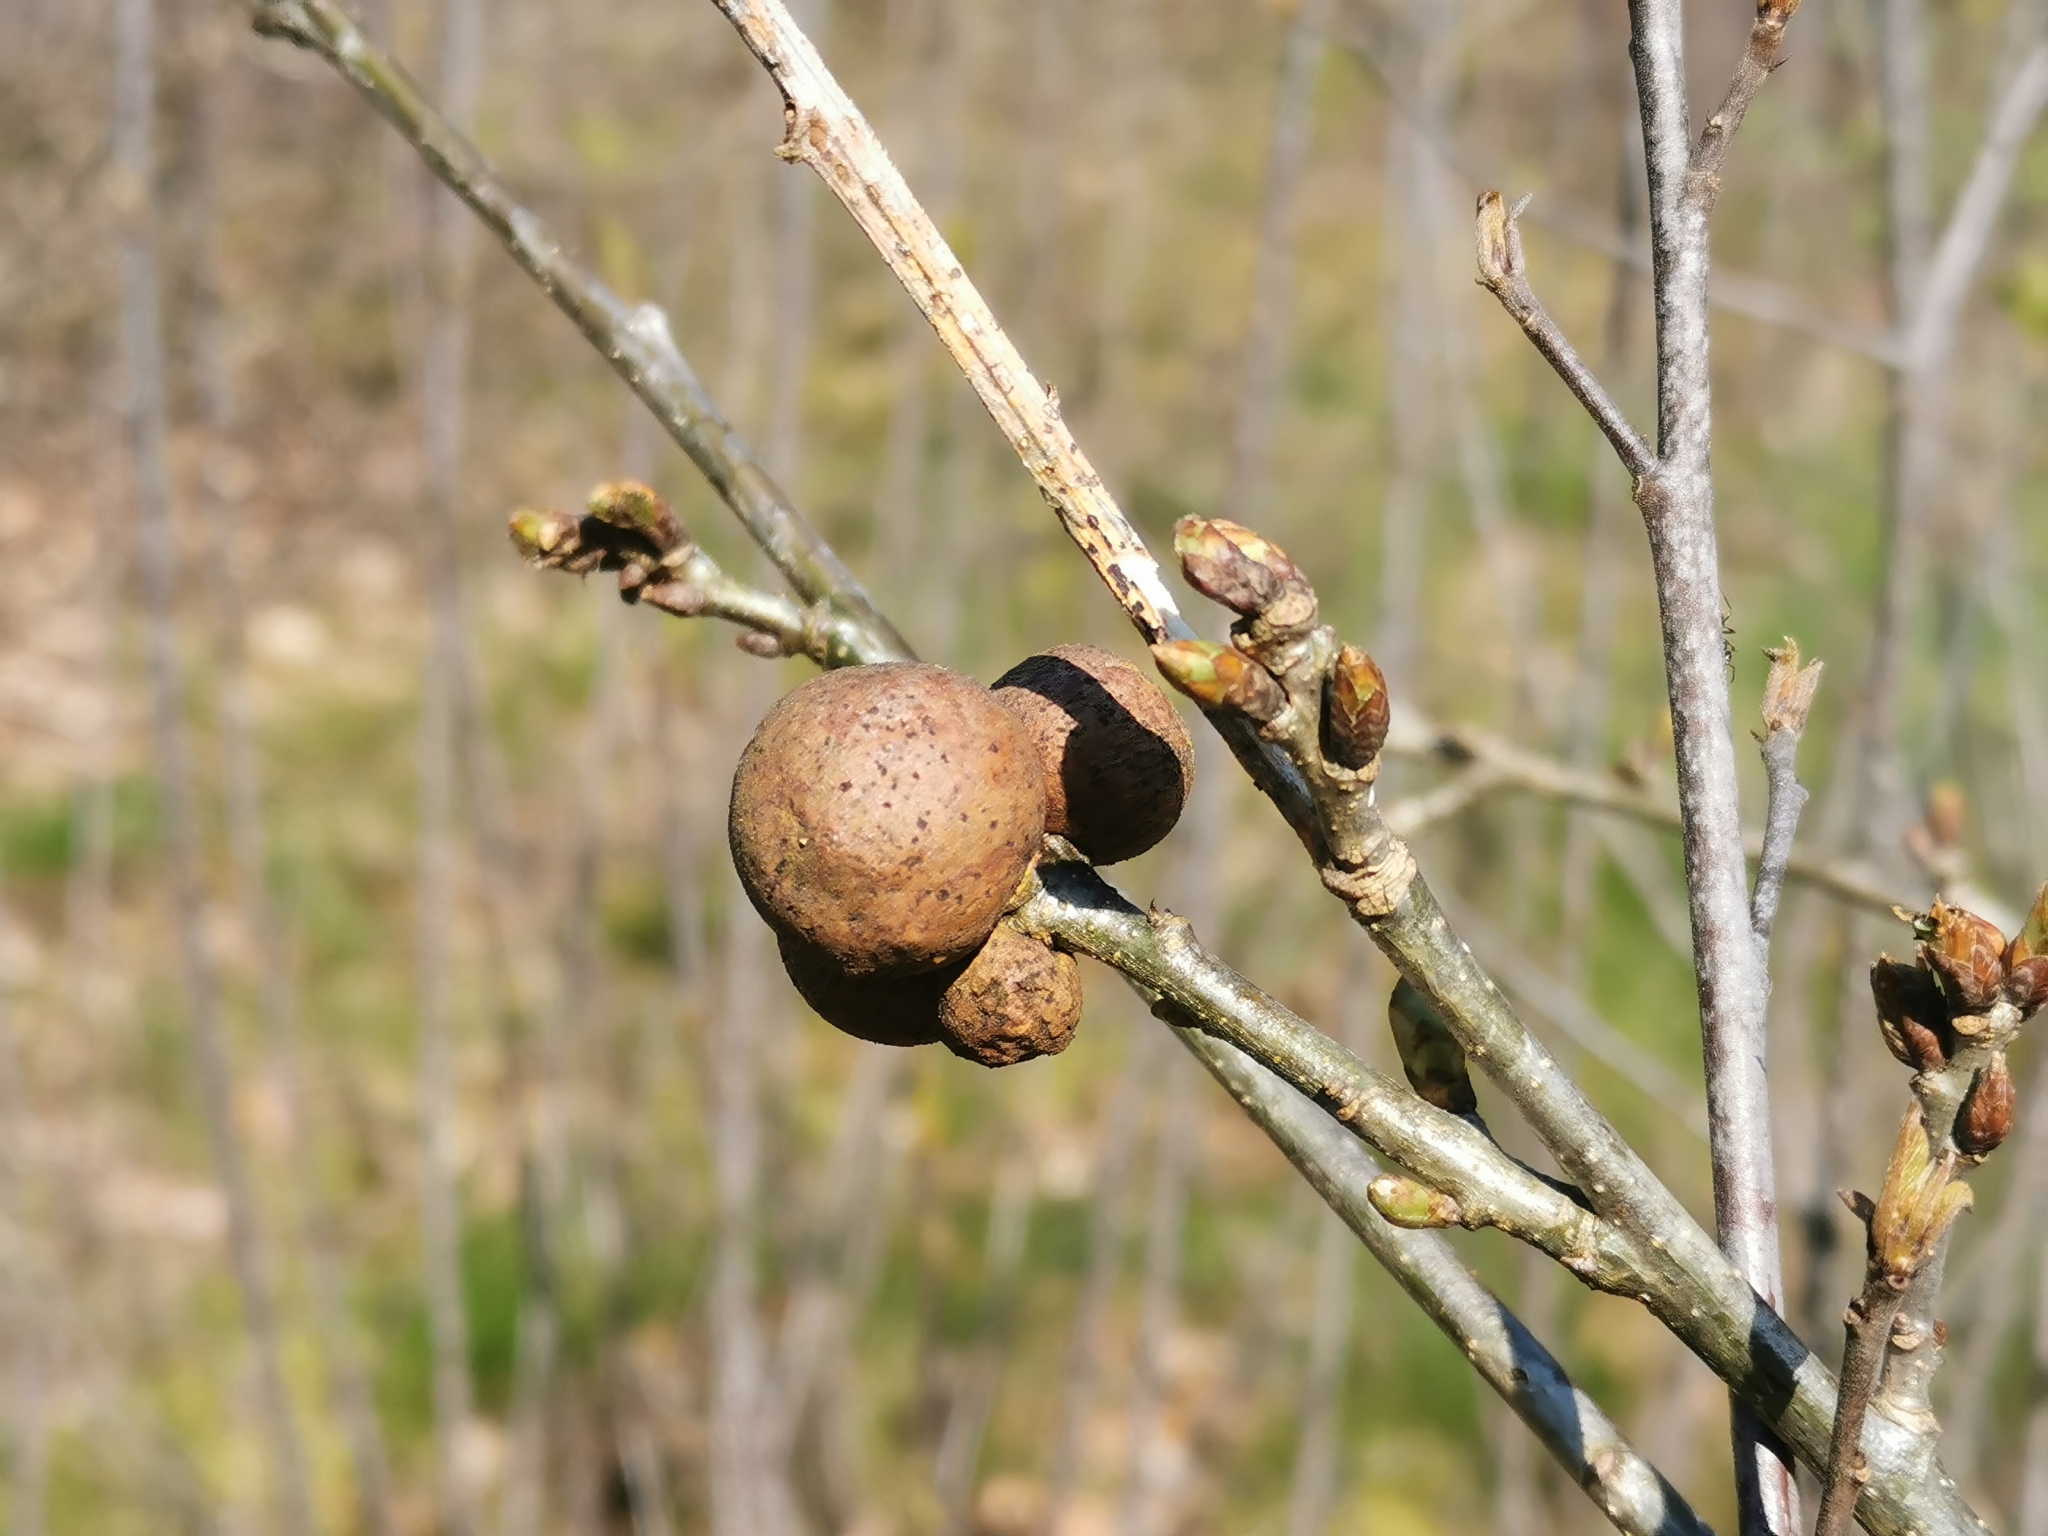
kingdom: Animalia
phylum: Arthropoda
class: Insecta
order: Hymenoptera
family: Cynipidae
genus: Andricus
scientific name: Andricus kollari
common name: Marble gall
